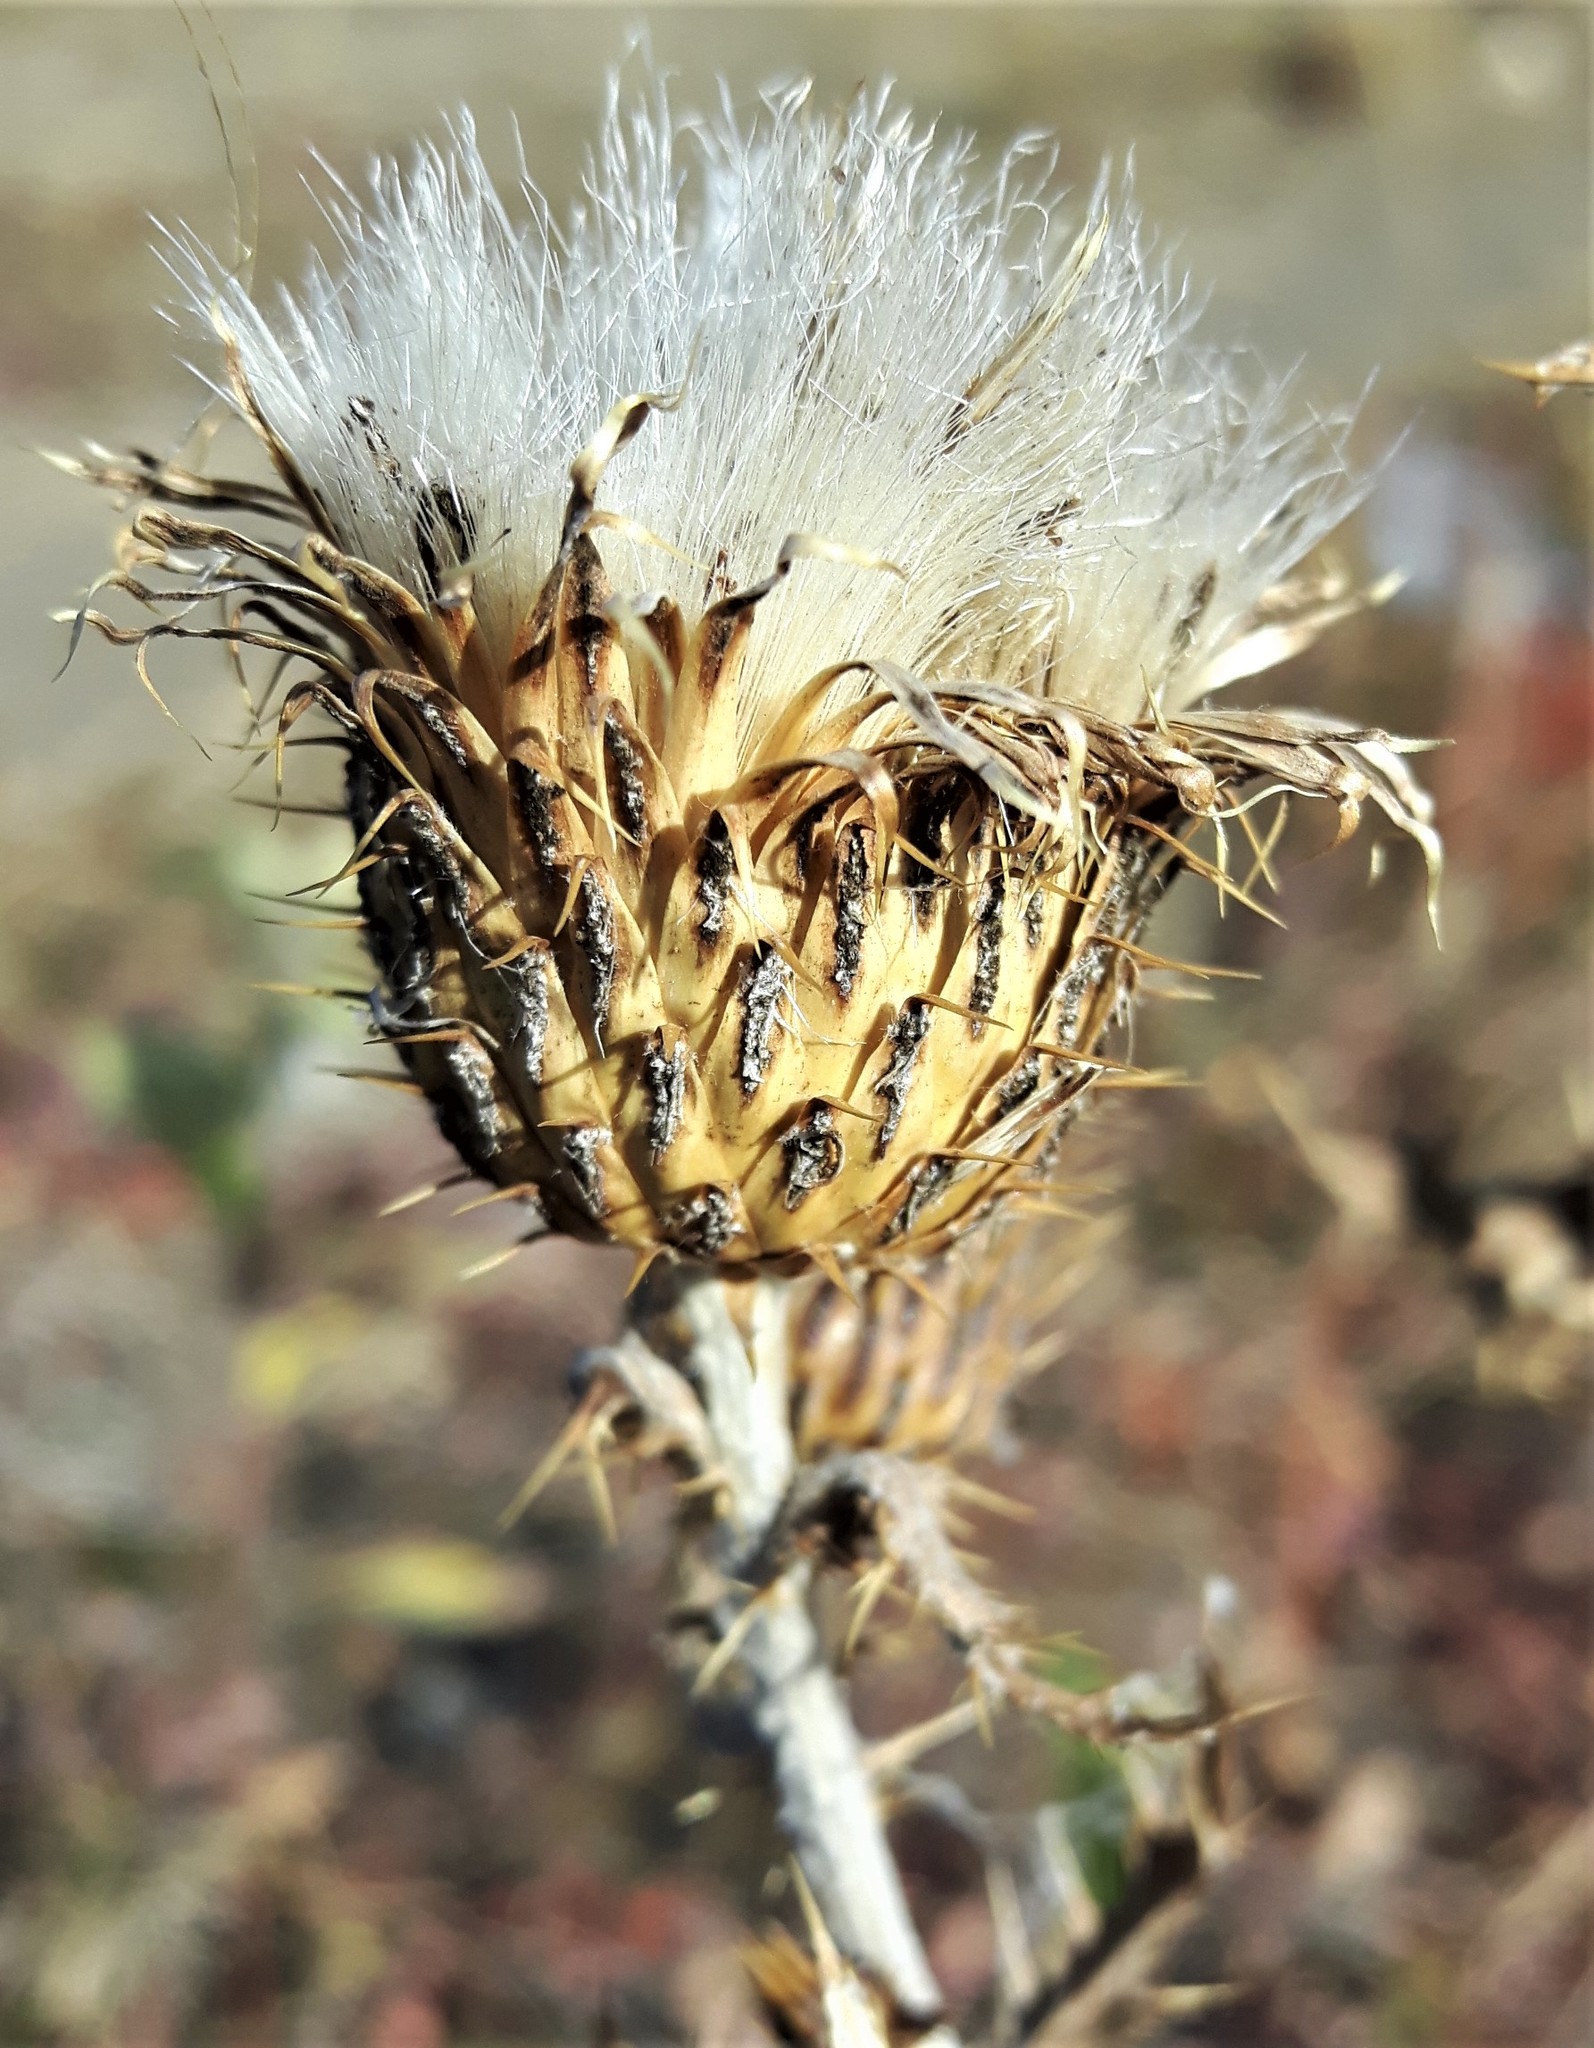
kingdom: Plantae
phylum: Tracheophyta
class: Magnoliopsida
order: Asterales
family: Asteraceae
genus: Cirsium
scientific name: Cirsium undulatum
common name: Pasture thistle
